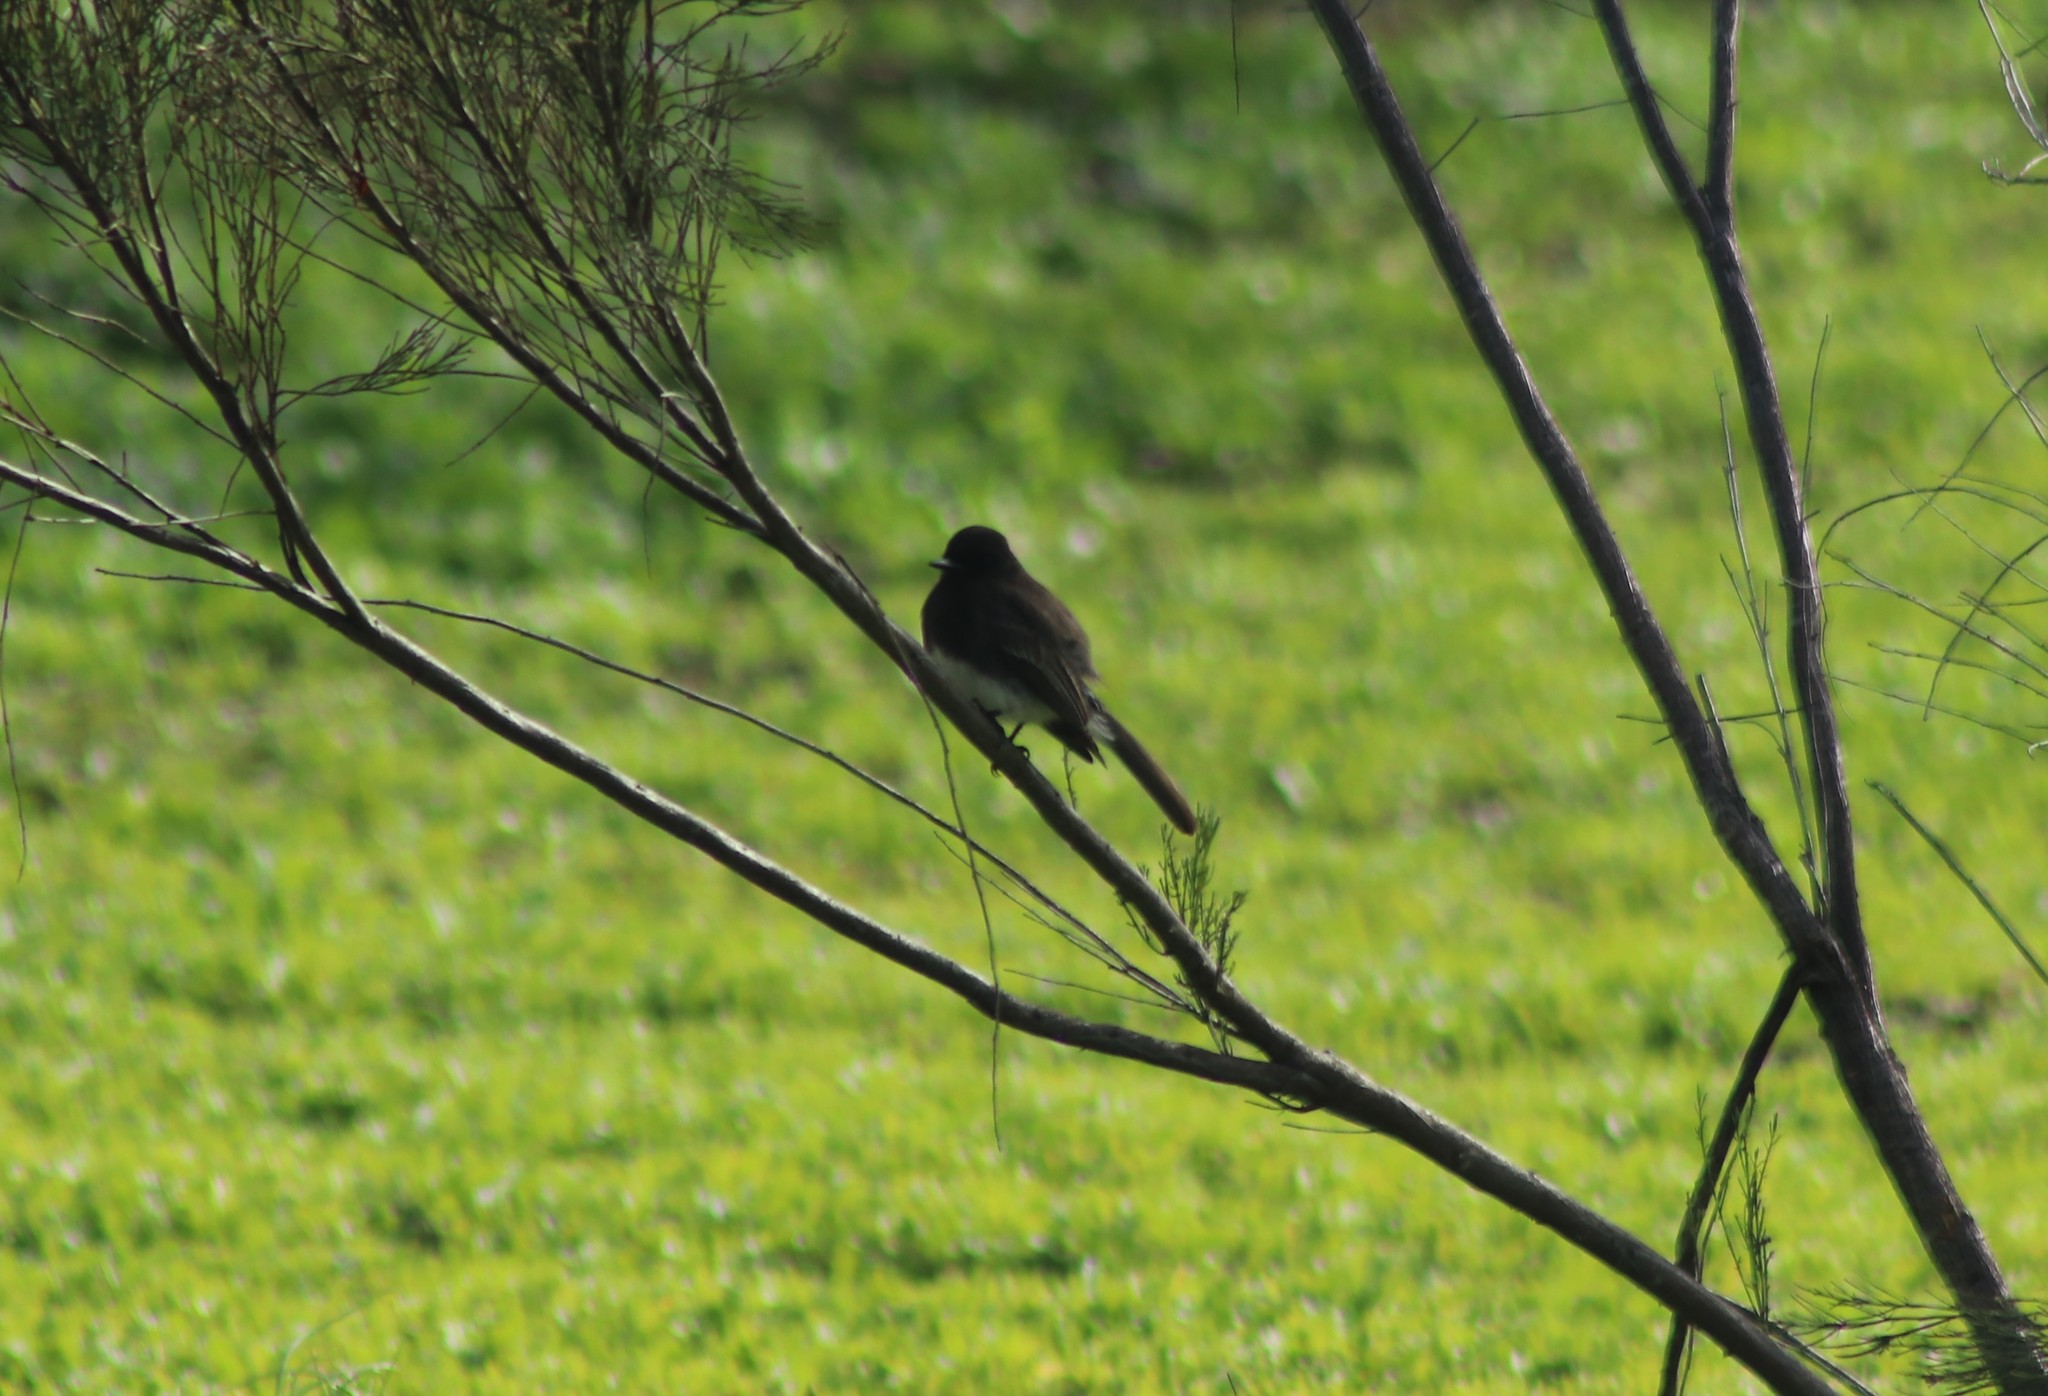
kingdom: Animalia
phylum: Chordata
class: Aves
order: Passeriformes
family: Tyrannidae
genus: Sayornis
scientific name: Sayornis nigricans
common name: Black phoebe
